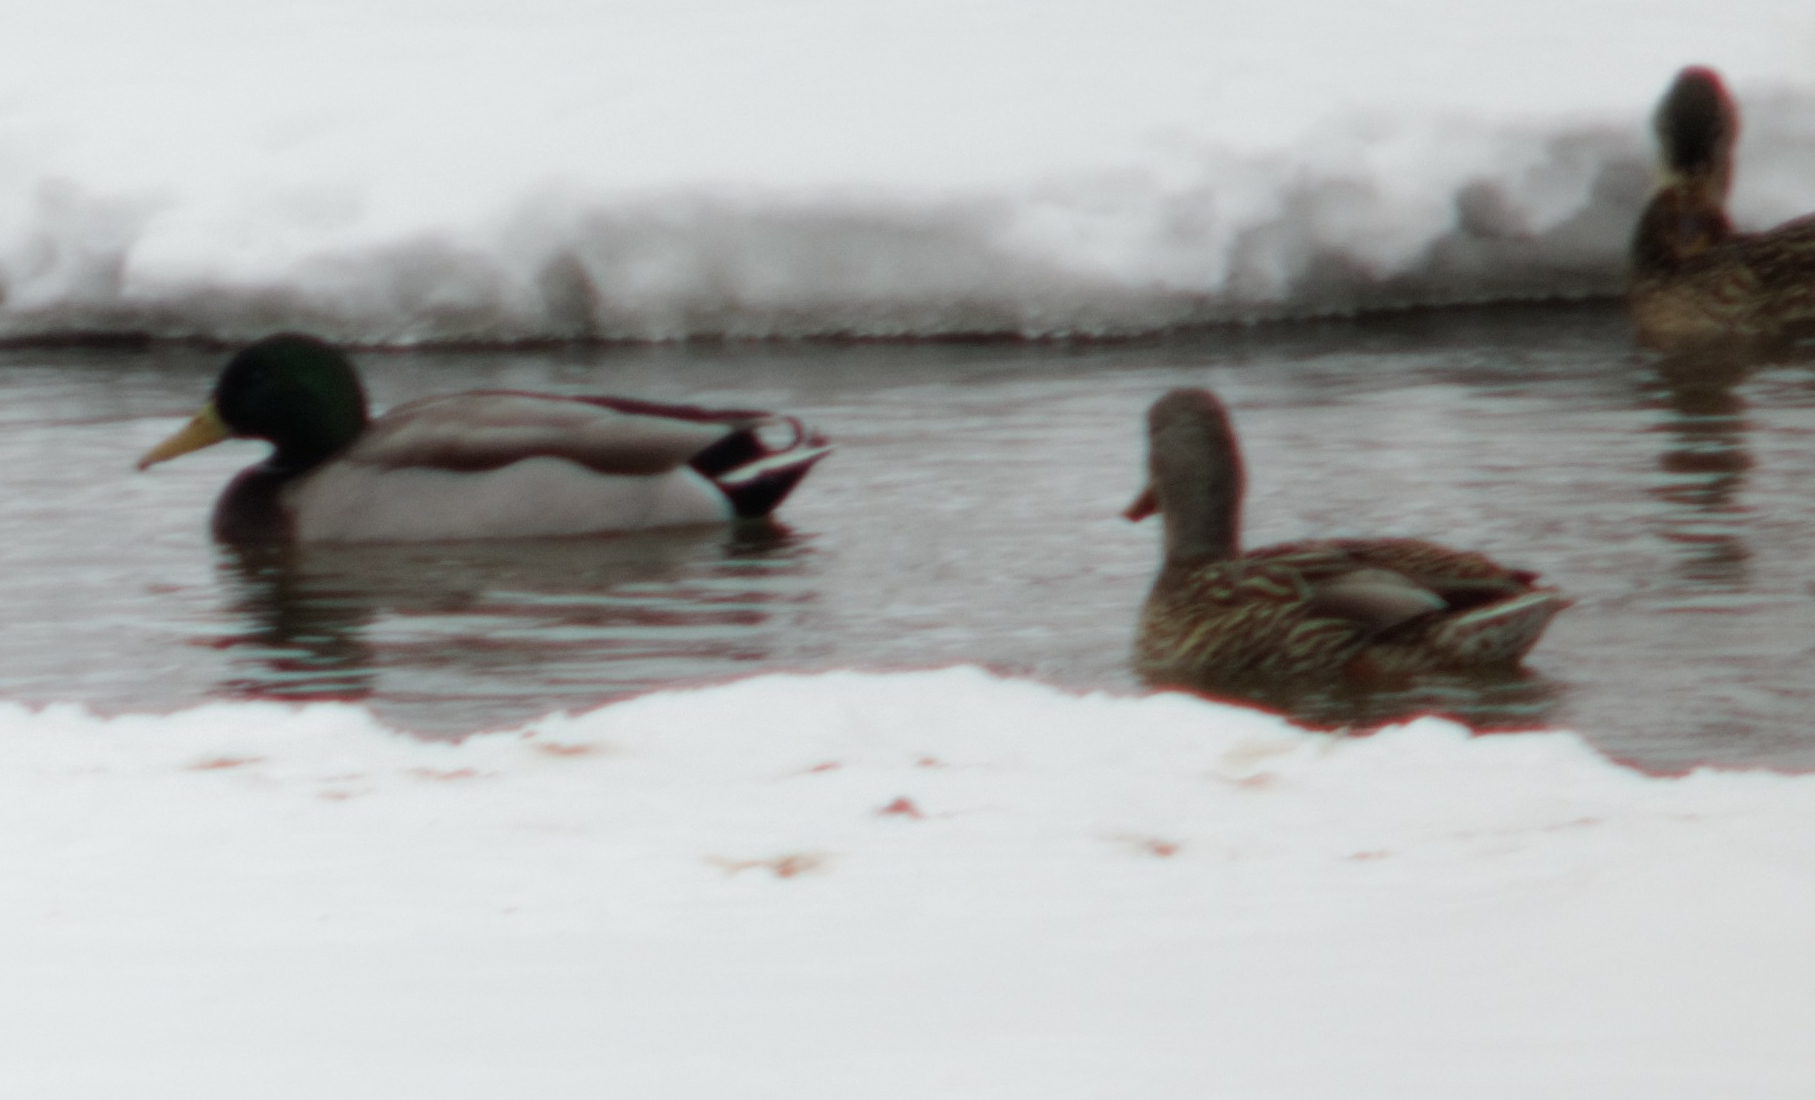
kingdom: Animalia
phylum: Chordata
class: Aves
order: Anseriformes
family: Anatidae
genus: Anas
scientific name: Anas platyrhynchos
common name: Mallard
